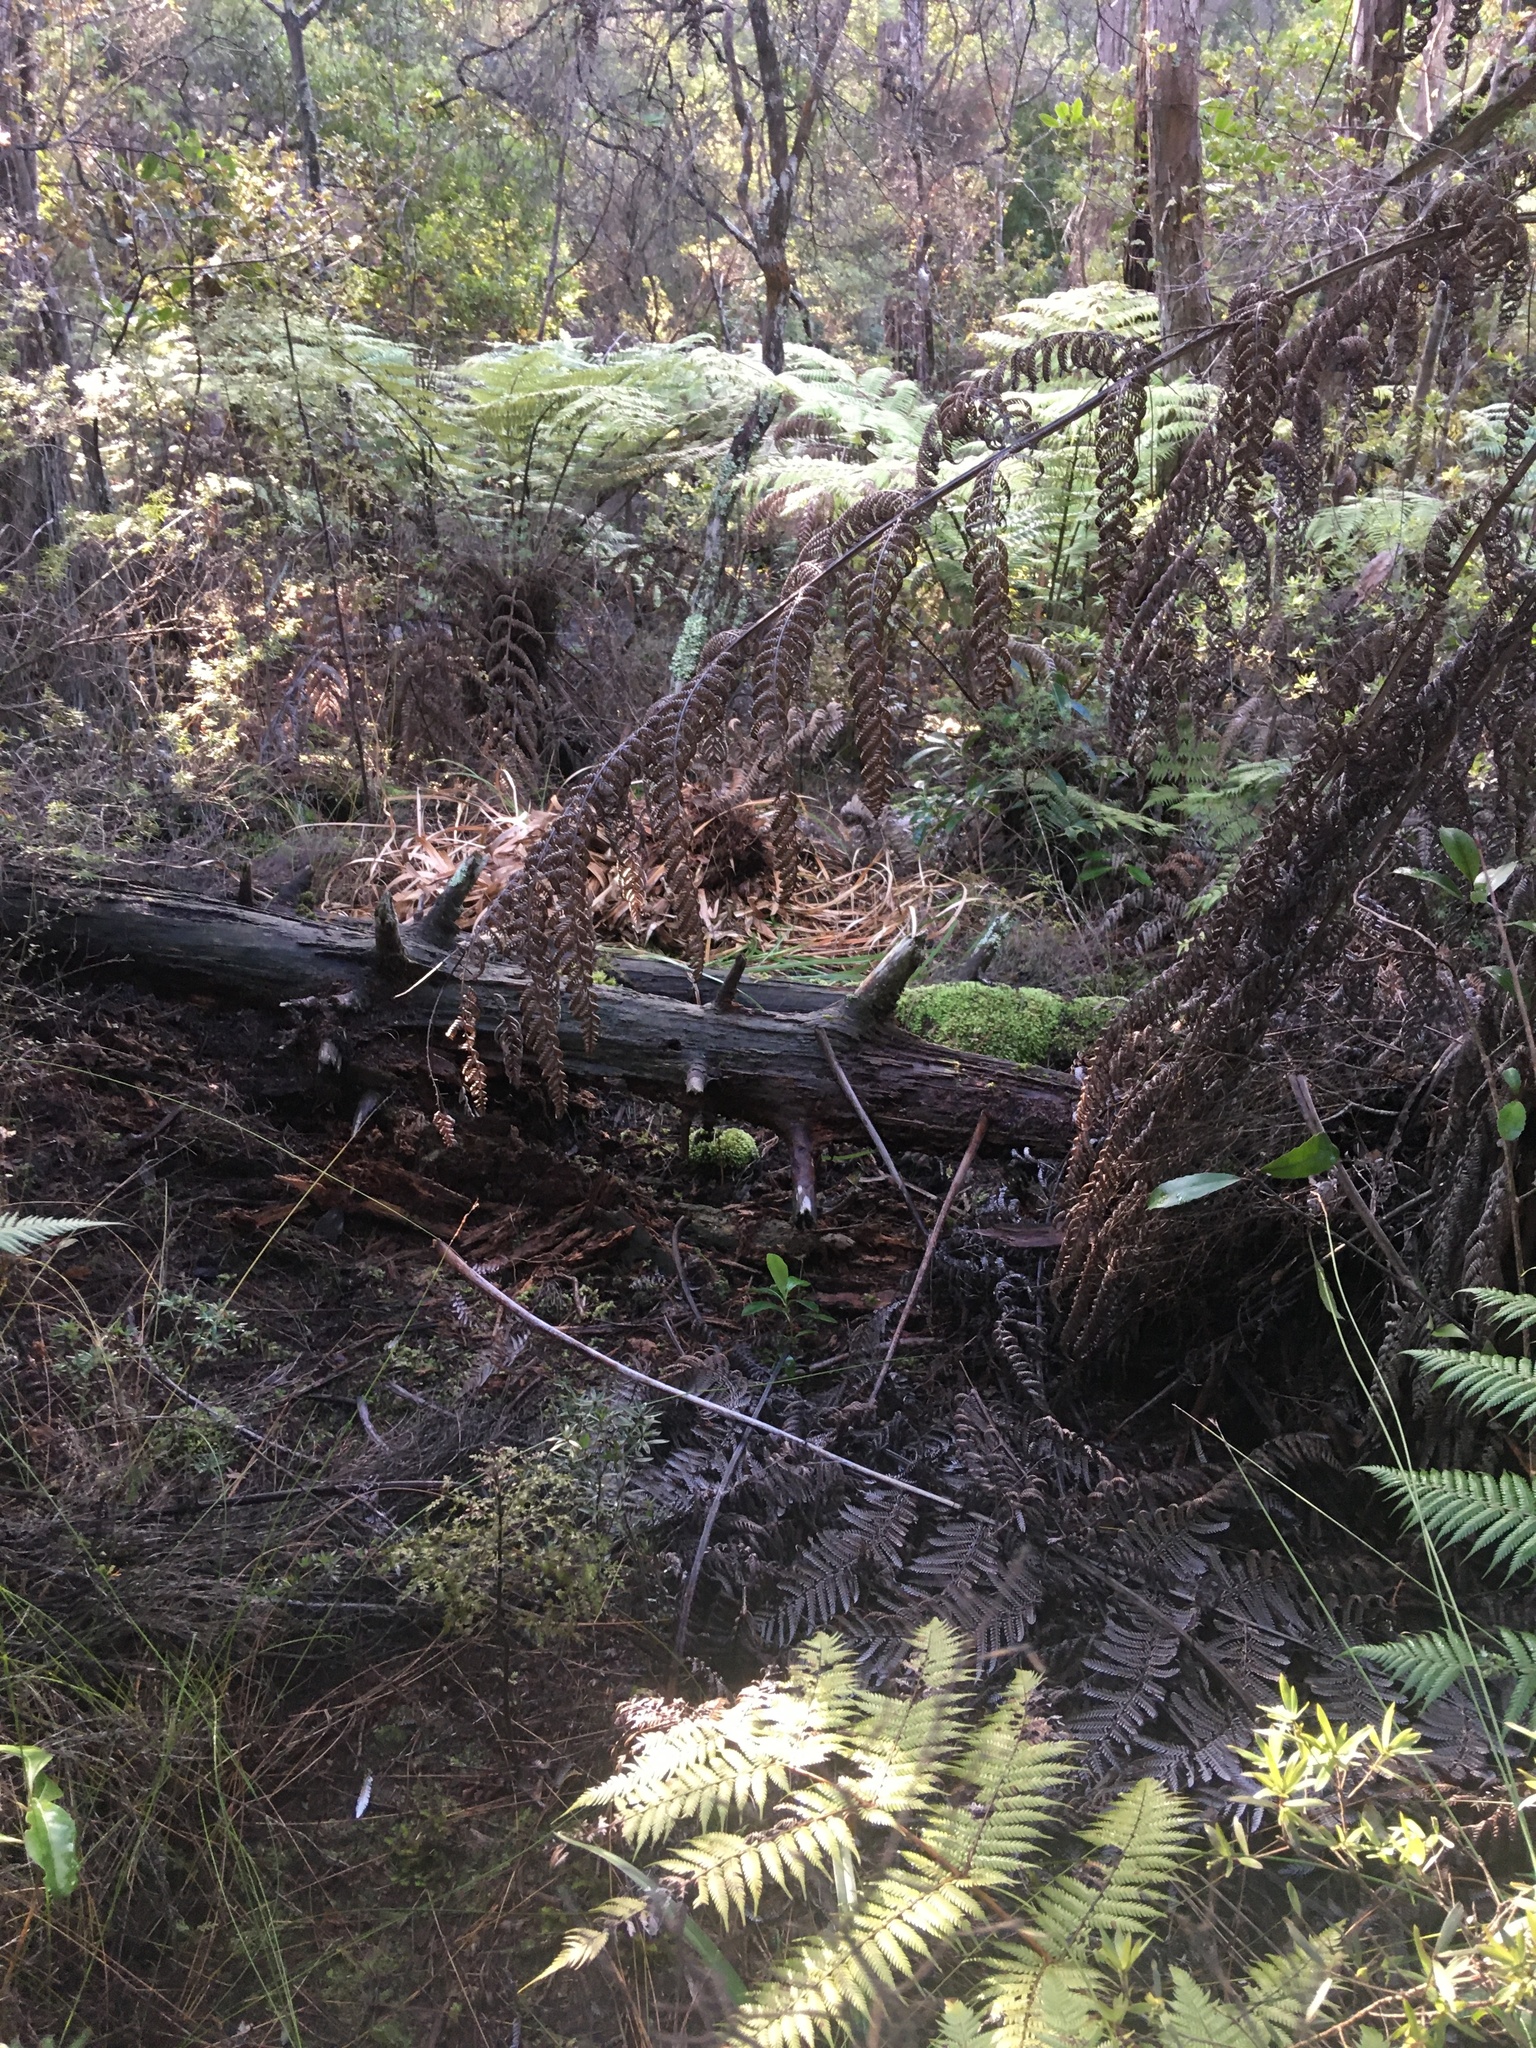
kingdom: Plantae
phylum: Tracheophyta
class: Pinopsida
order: Pinales
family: Phyllocladaceae
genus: Phyllocladus
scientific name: Phyllocladus trichomanoides
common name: Celery pine
